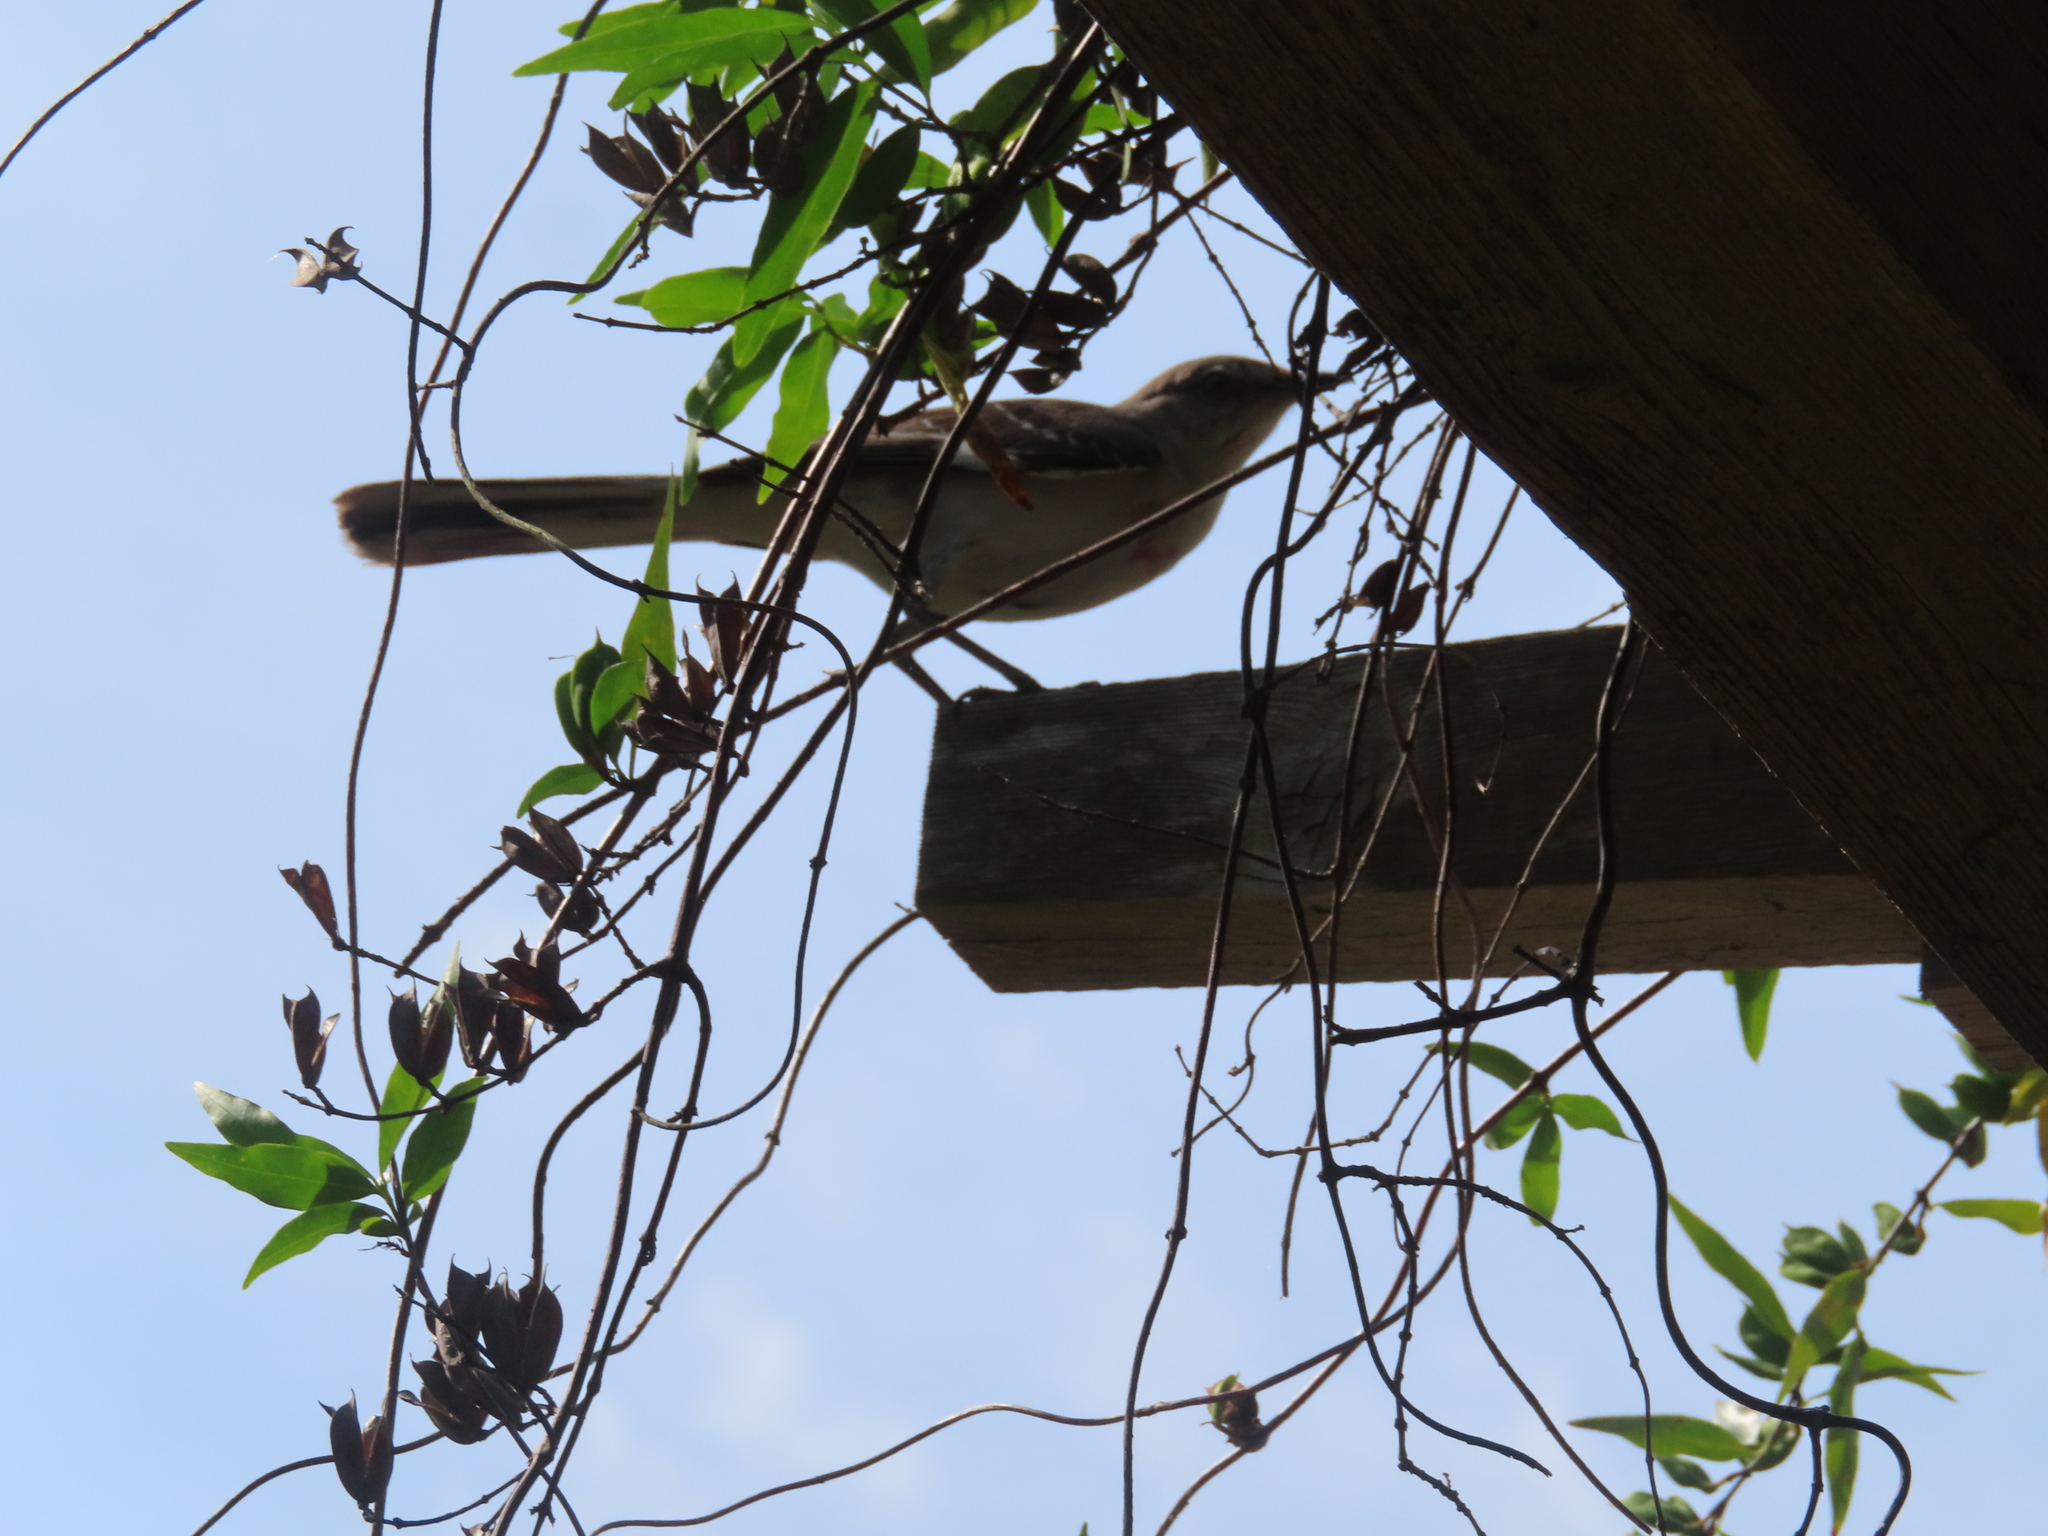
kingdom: Animalia
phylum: Chordata
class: Aves
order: Passeriformes
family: Mimidae
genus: Mimus
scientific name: Mimus polyglottos
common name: Northern mockingbird
